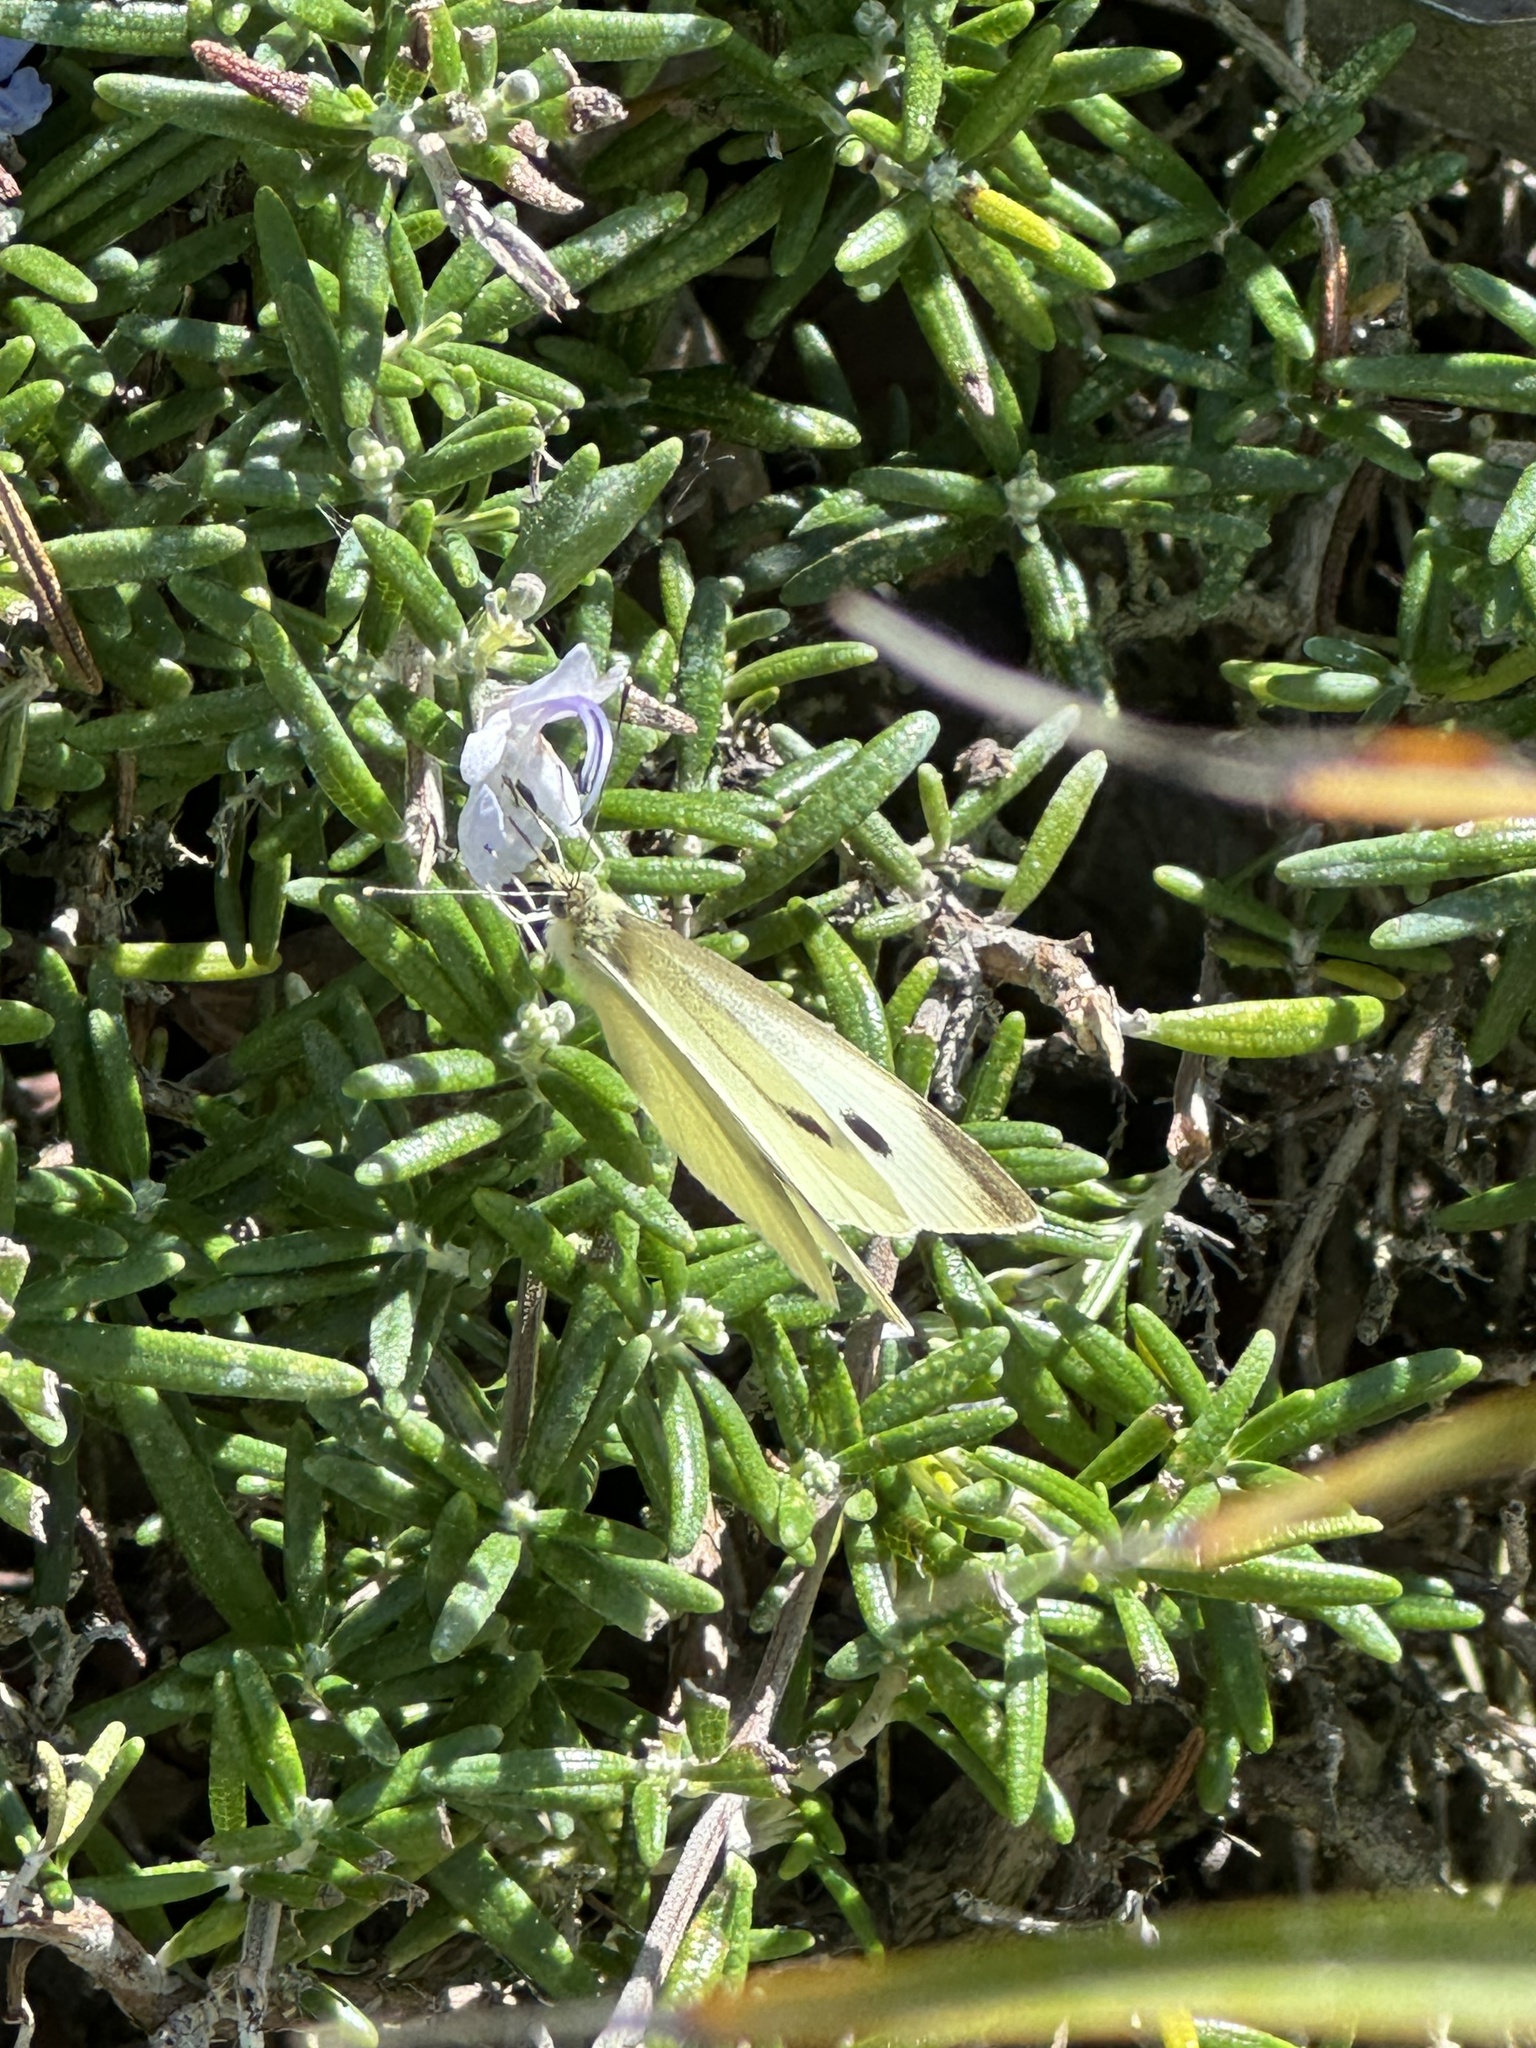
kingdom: Animalia
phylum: Arthropoda
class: Insecta
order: Lepidoptera
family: Pieridae
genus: Pieris
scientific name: Pieris rapae
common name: Small white
